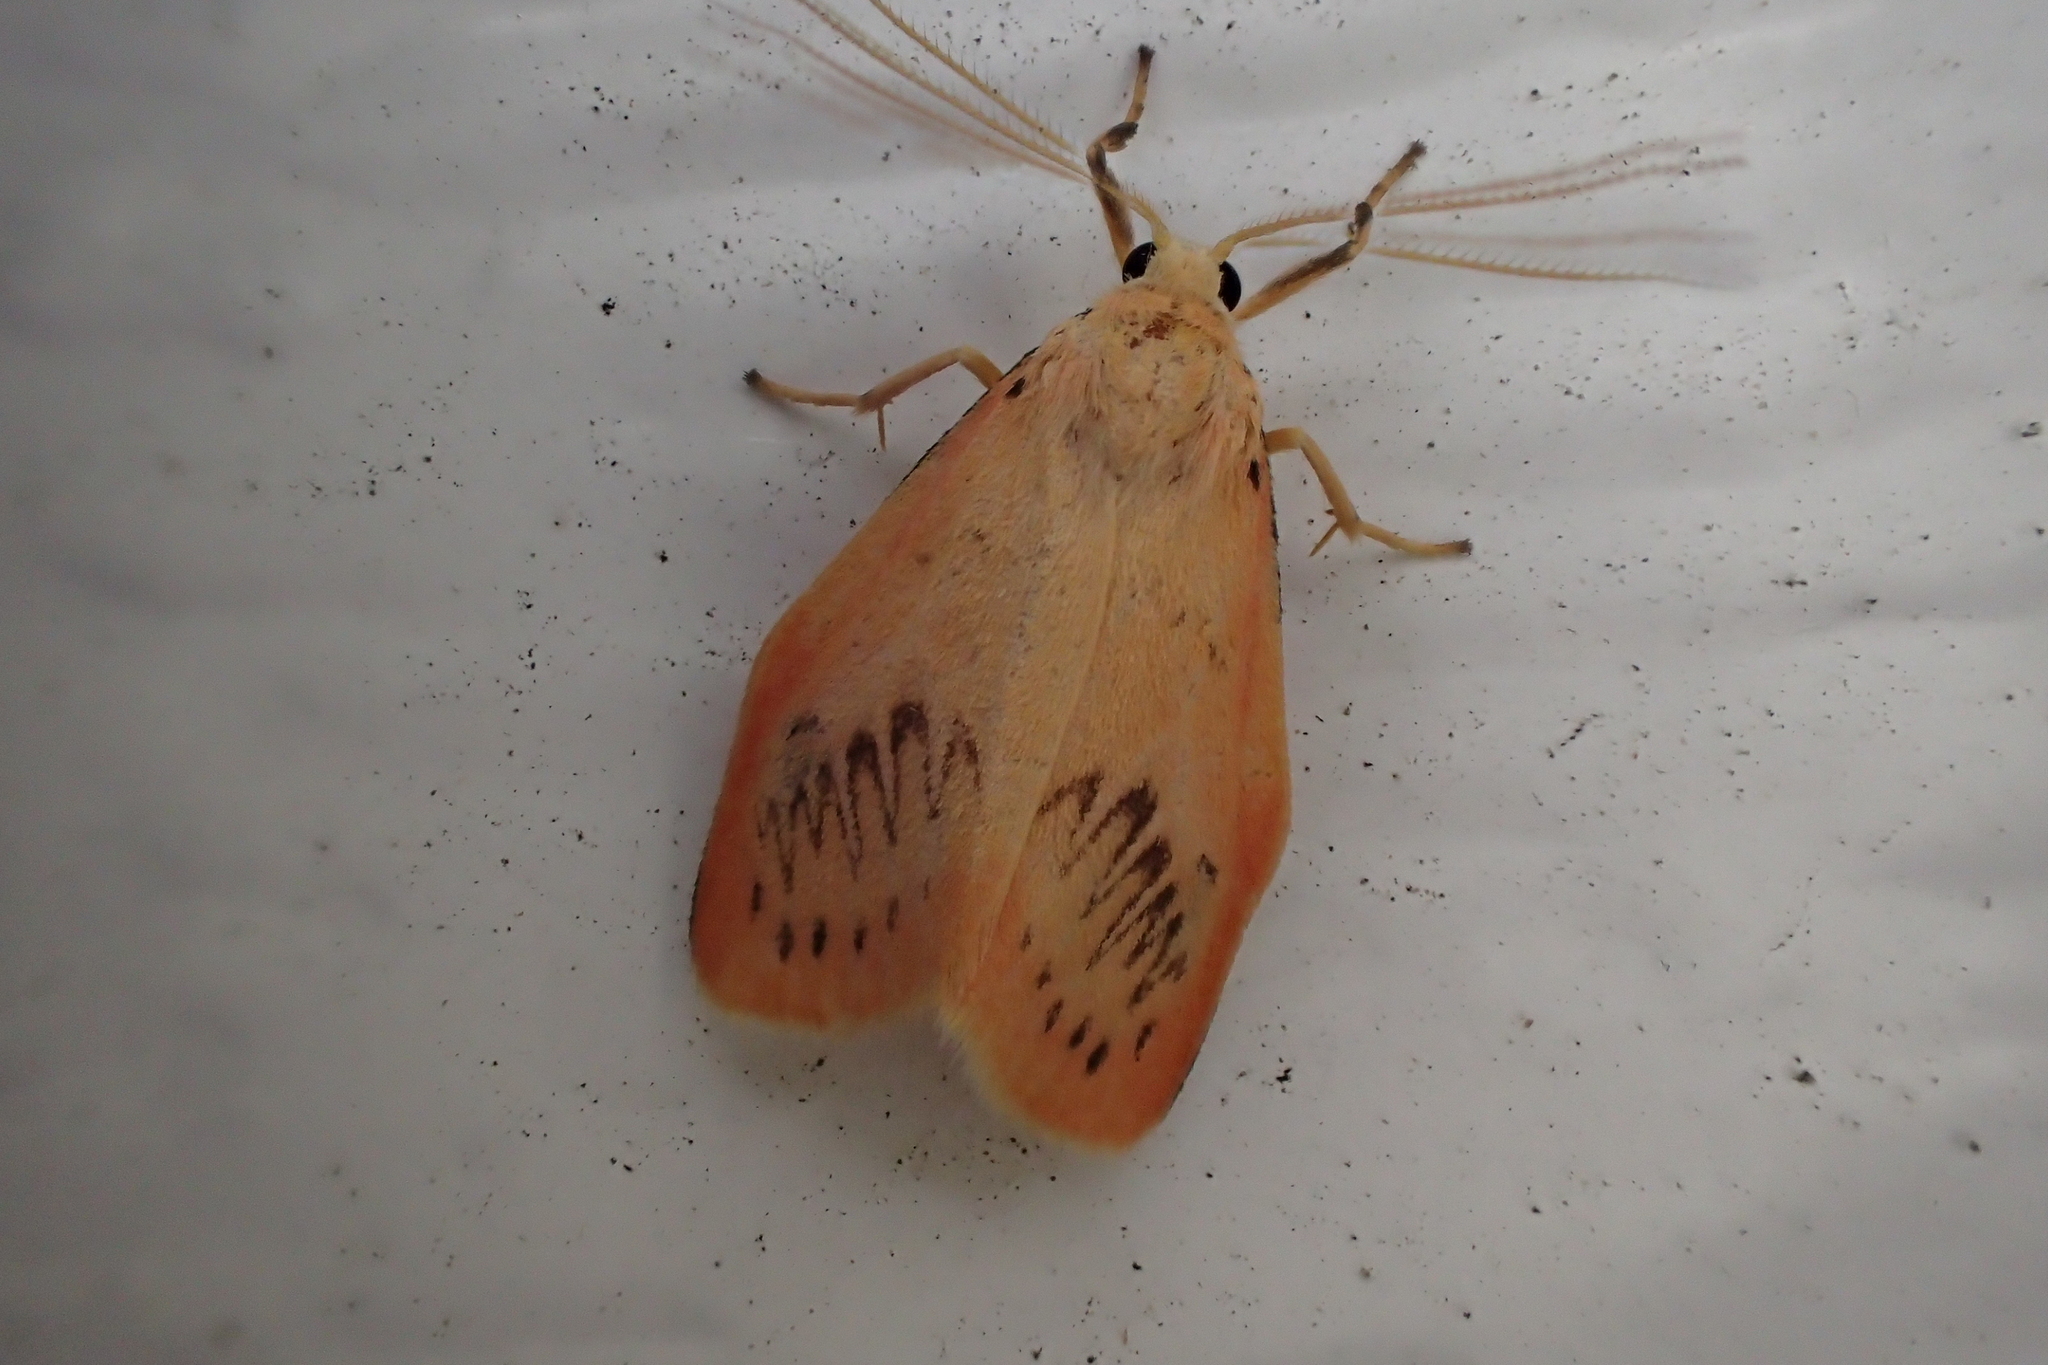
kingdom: Animalia
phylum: Arthropoda
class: Insecta
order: Lepidoptera
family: Erebidae
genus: Miltochrista
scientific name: Miltochrista miniata
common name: Rosy footman
